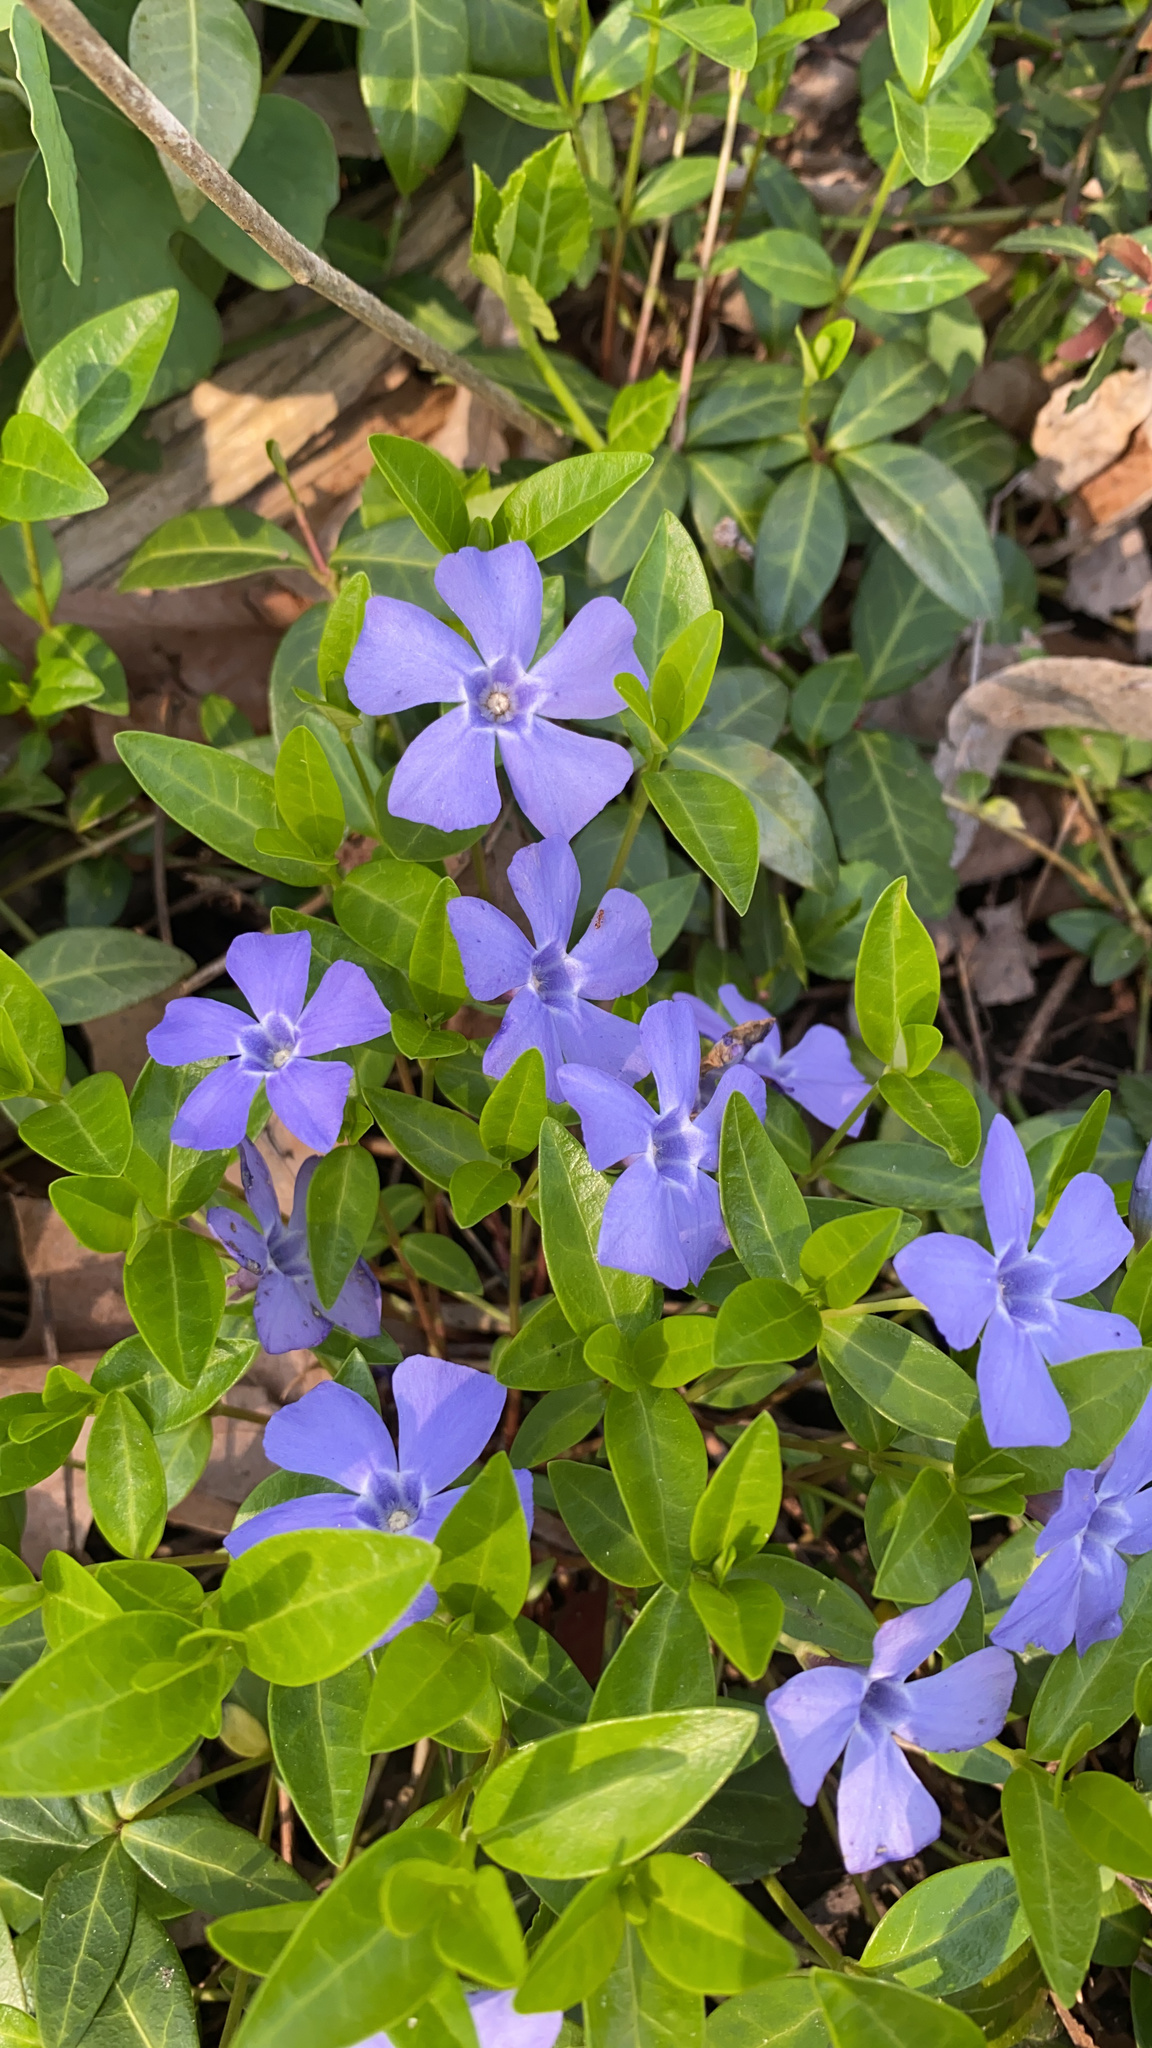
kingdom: Plantae
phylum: Tracheophyta
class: Magnoliopsida
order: Gentianales
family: Apocynaceae
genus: Vinca
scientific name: Vinca minor
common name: Lesser periwinkle
